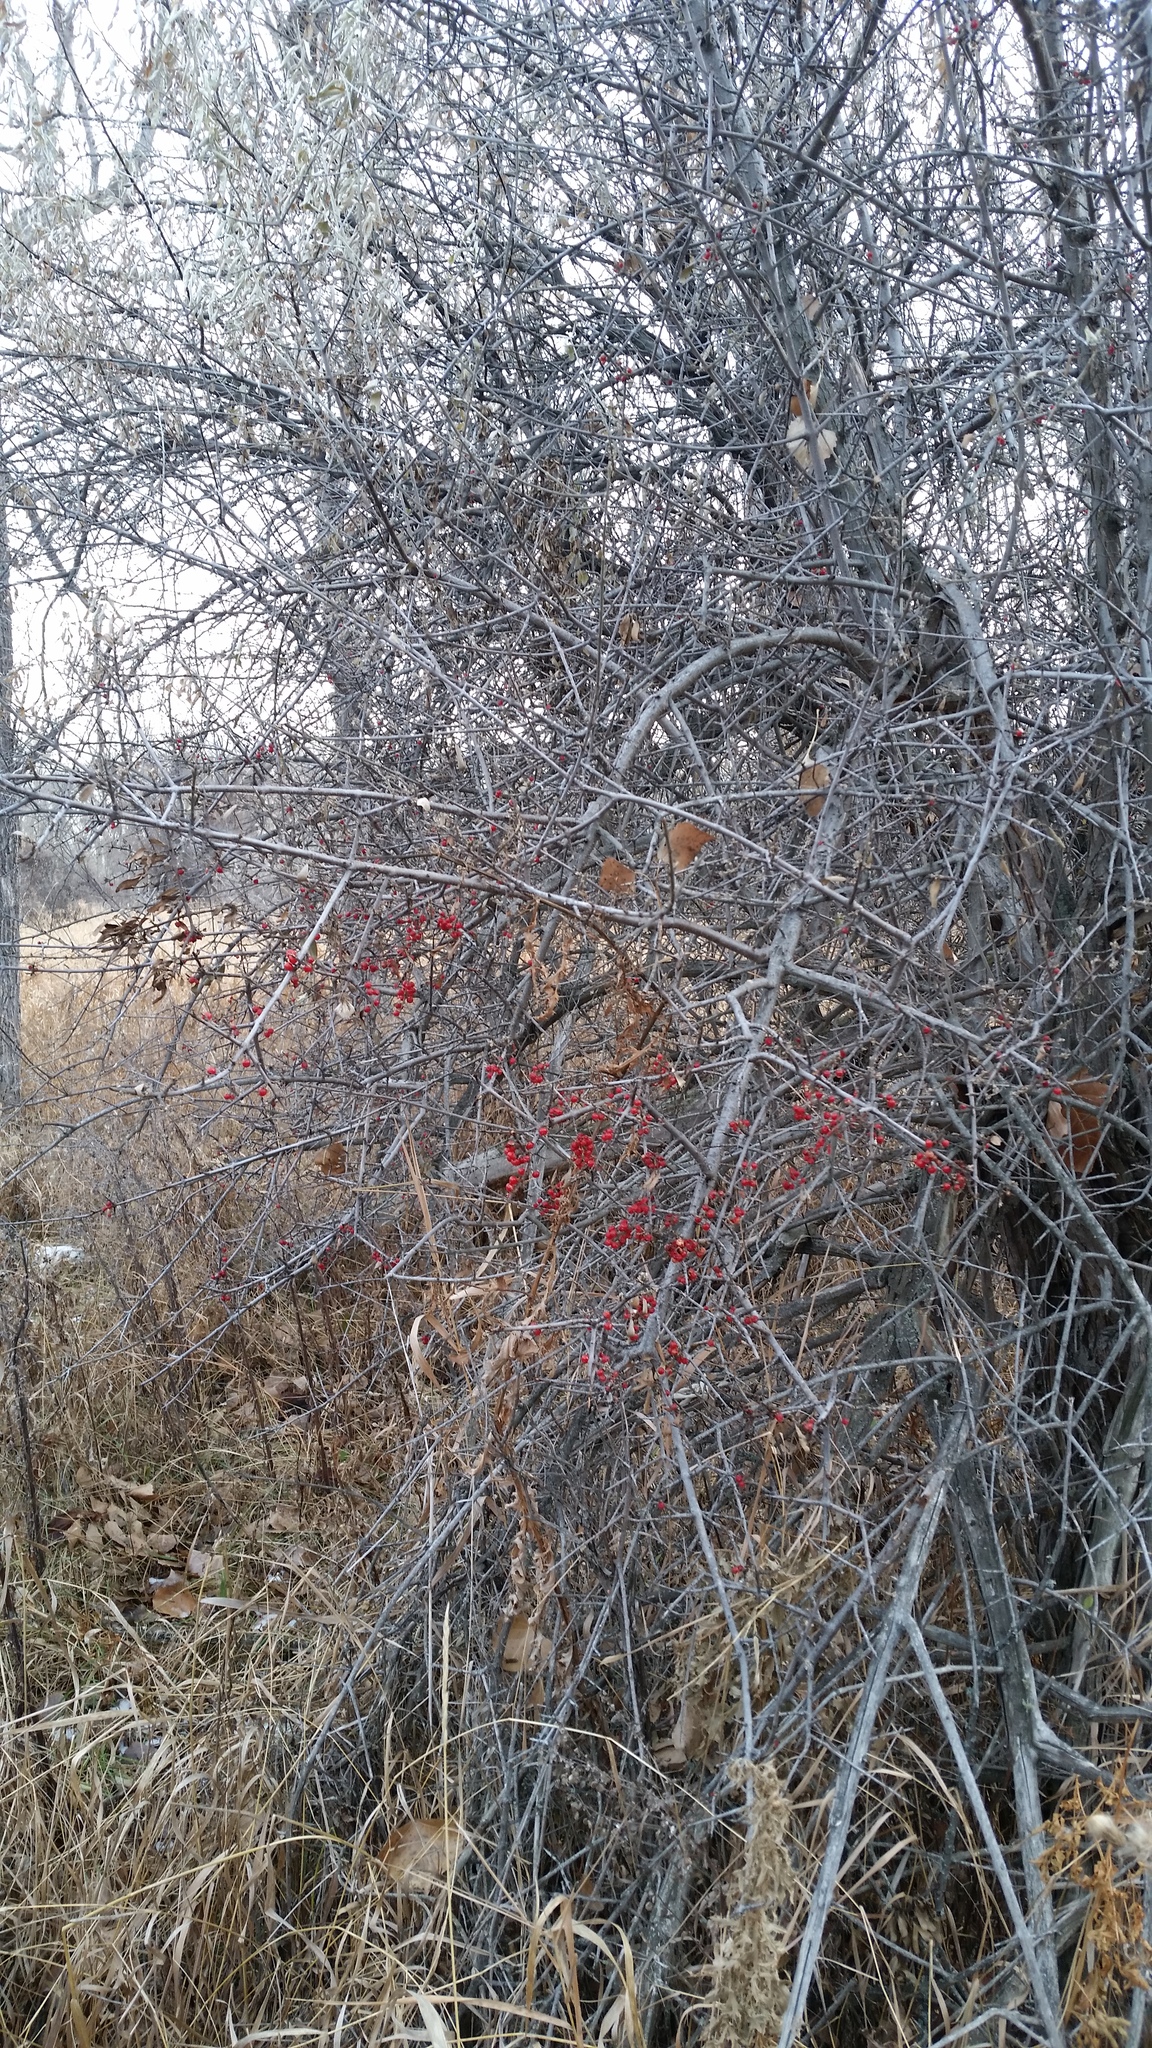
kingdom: Plantae
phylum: Tracheophyta
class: Magnoliopsida
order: Rosales
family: Elaeagnaceae
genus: Shepherdia
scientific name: Shepherdia argentea
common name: Silver buffaloberry
